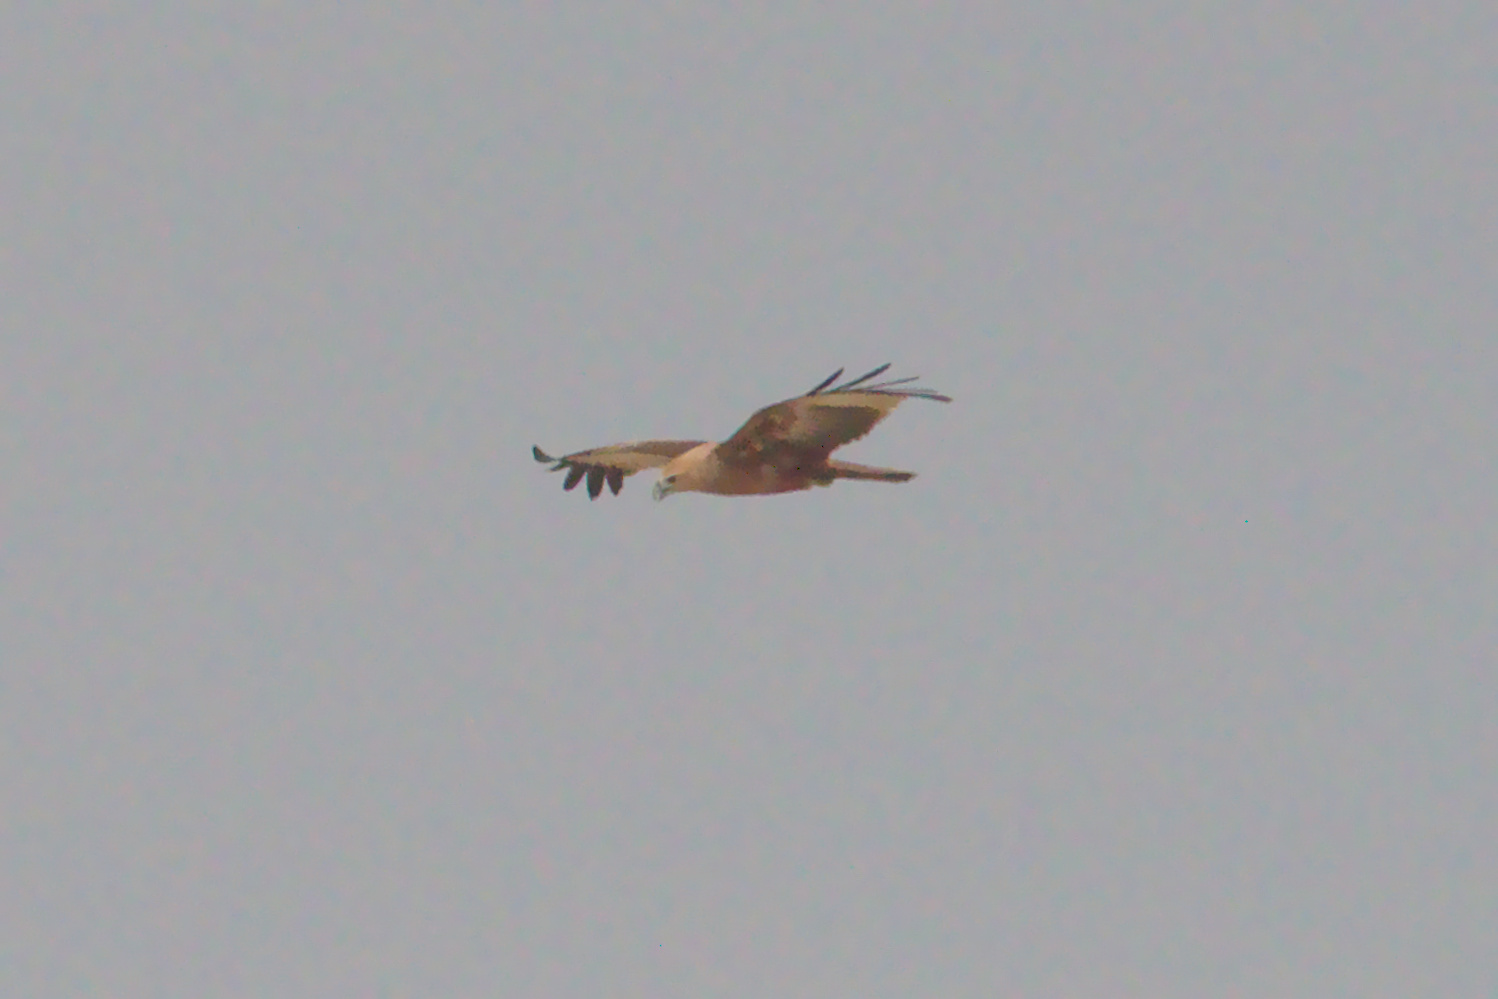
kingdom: Animalia
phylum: Chordata
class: Aves
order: Accipitriformes
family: Accipitridae
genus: Haliastur
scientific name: Haliastur indus
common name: Brahminy kite
